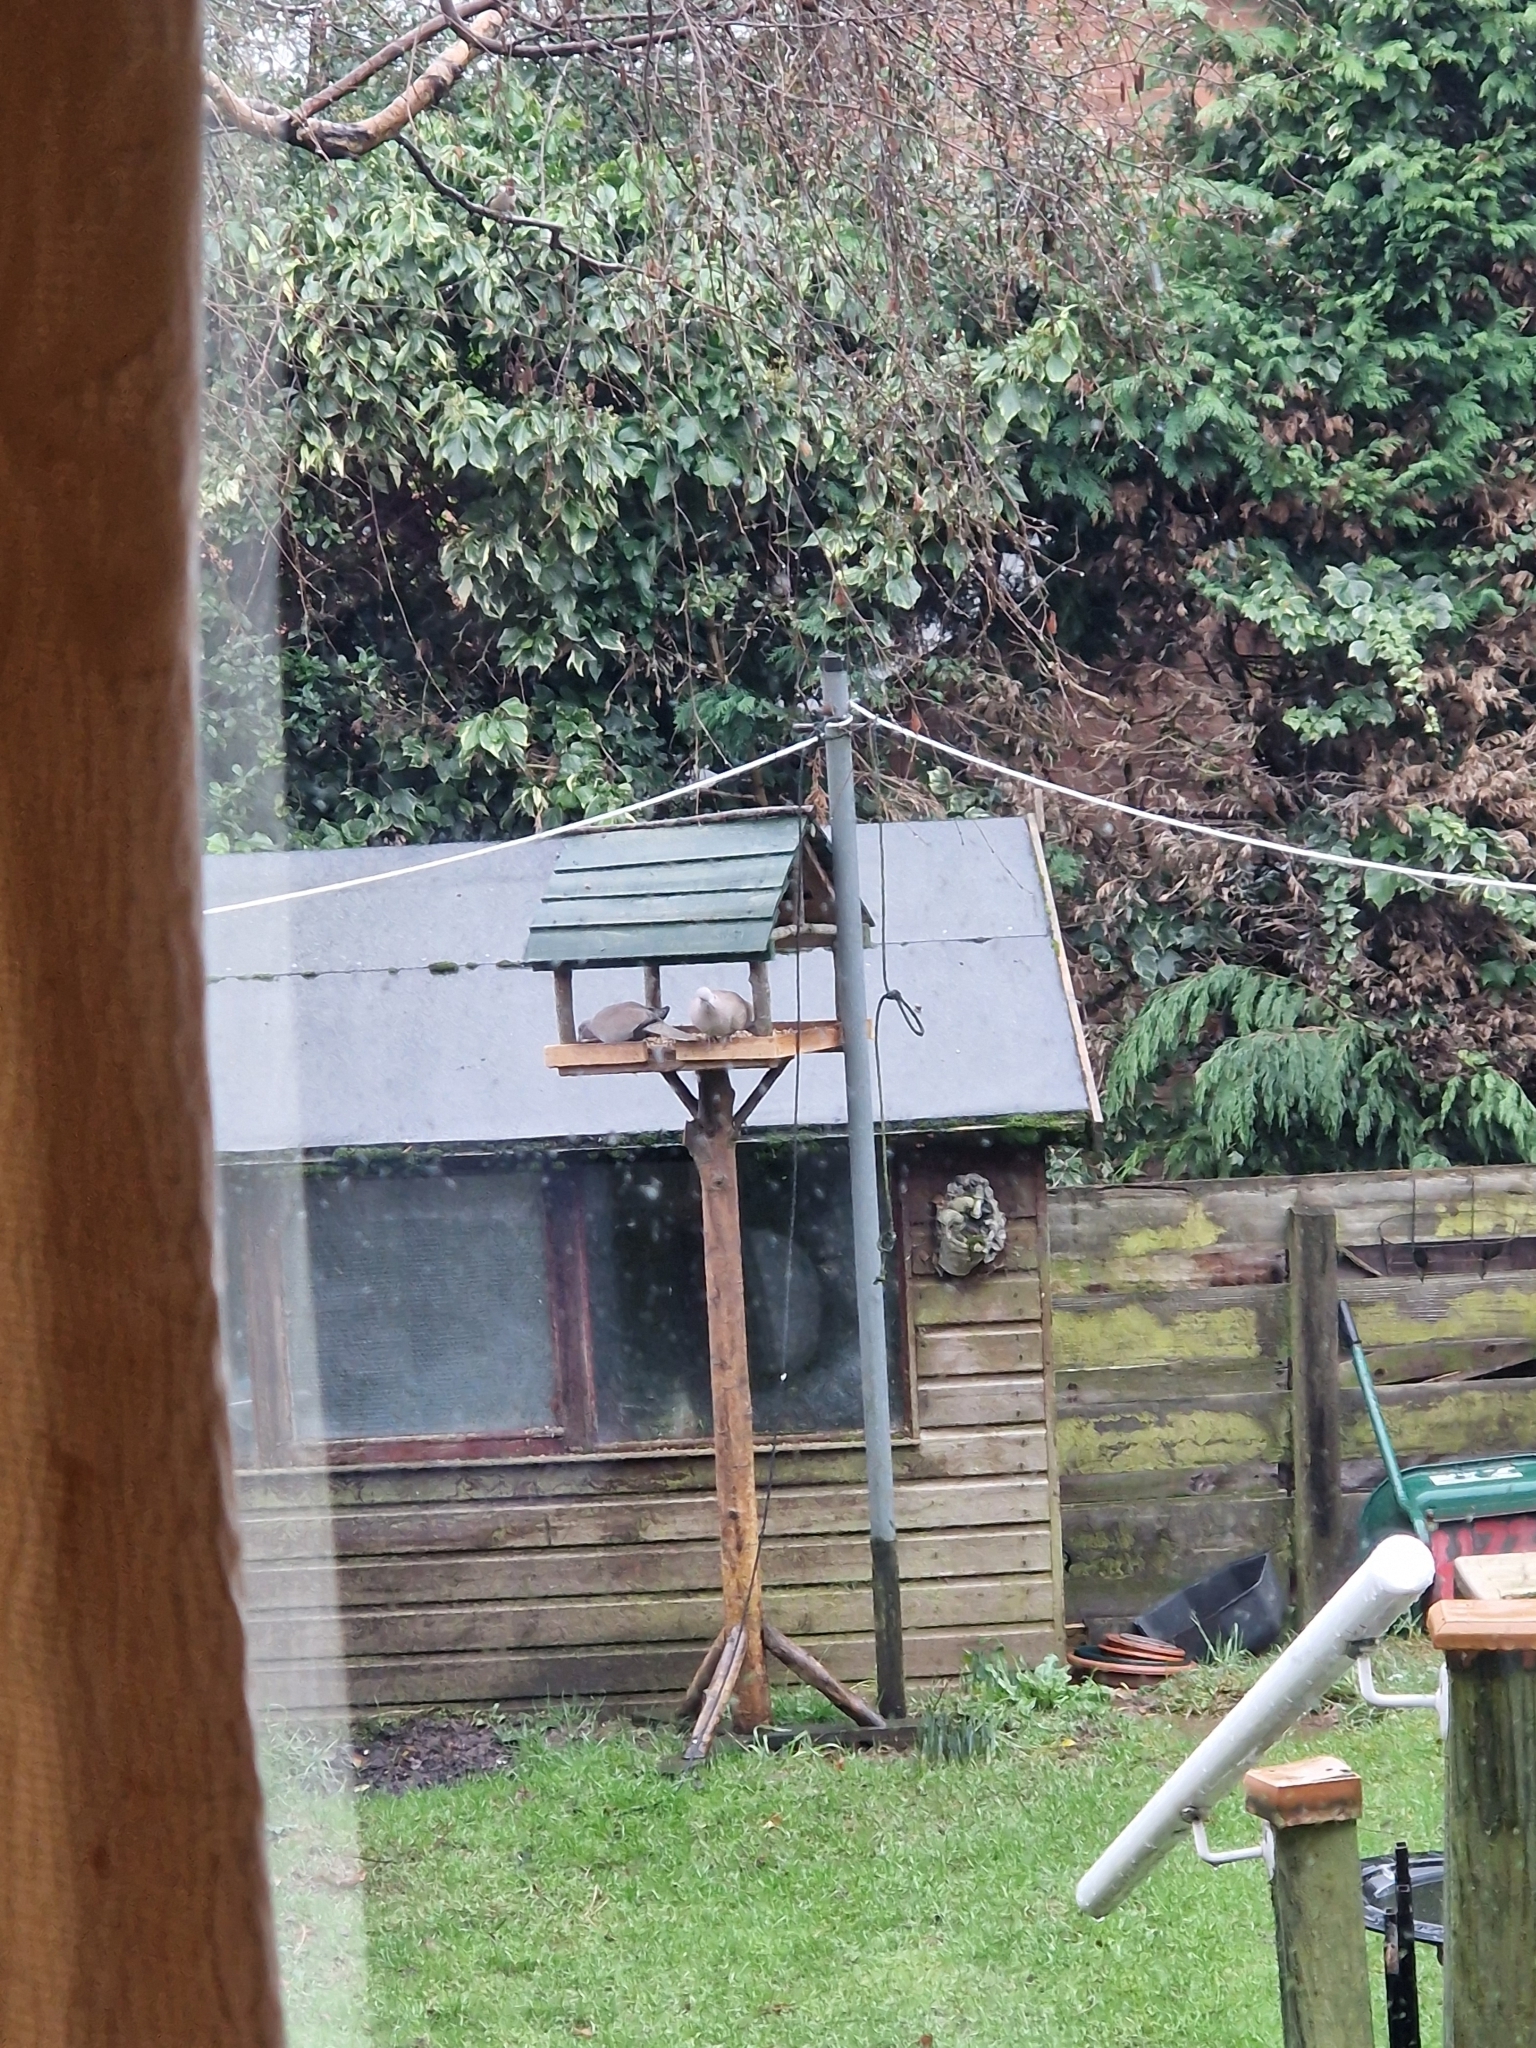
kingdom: Animalia
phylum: Chordata
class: Aves
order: Columbiformes
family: Columbidae
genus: Streptopelia
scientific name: Streptopelia decaocto
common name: Eurasian collared dove
